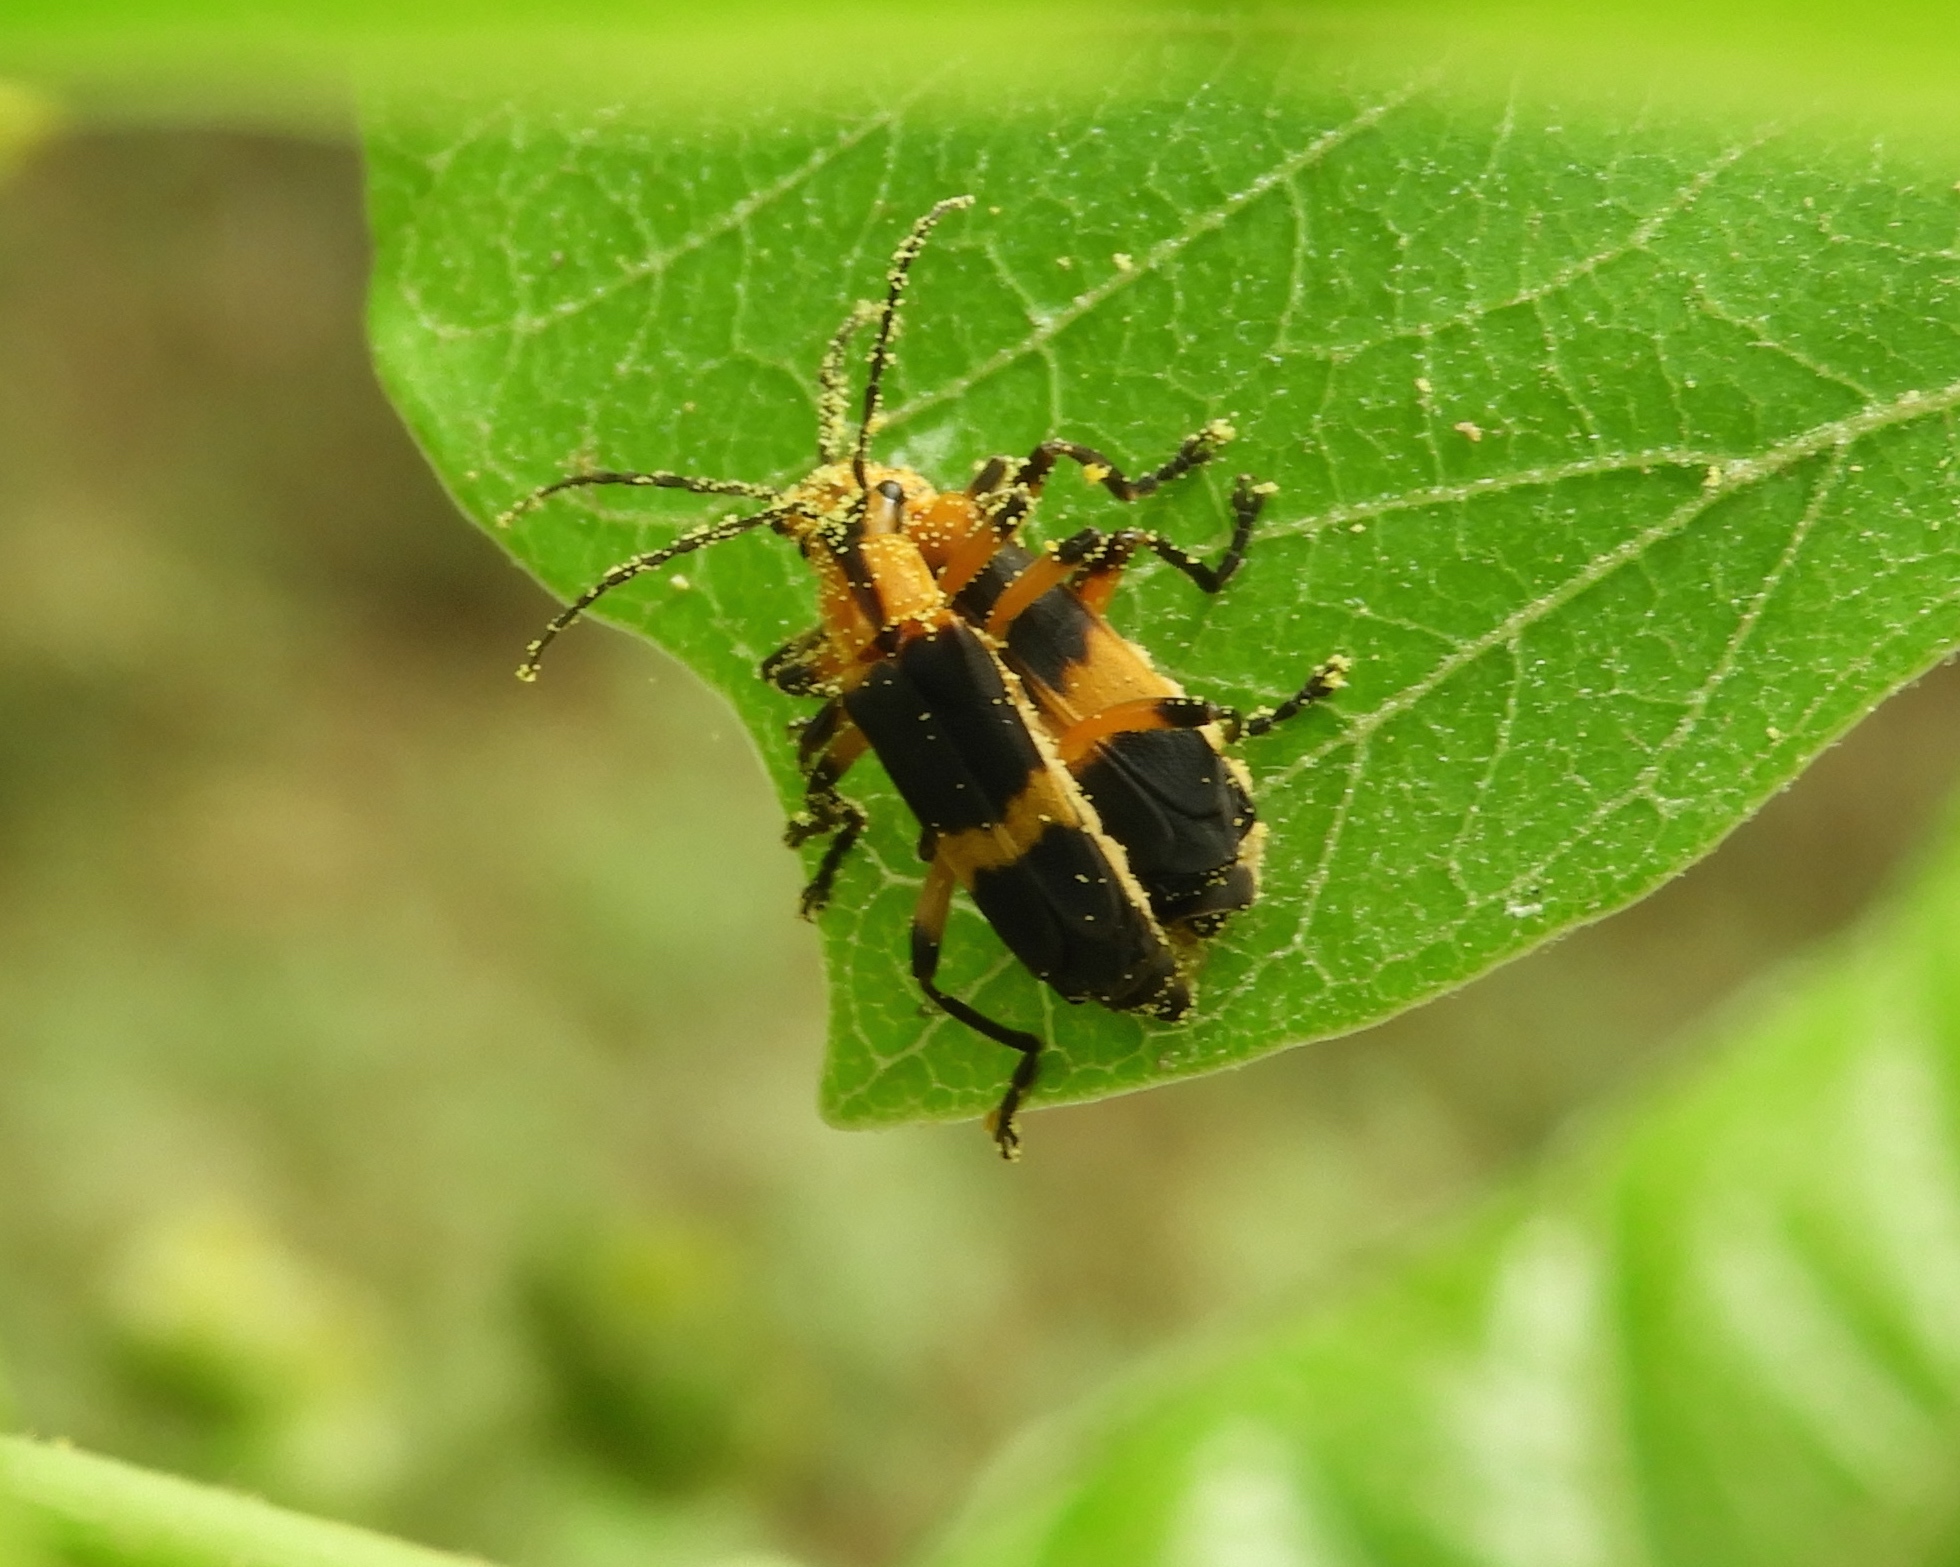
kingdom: Animalia
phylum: Arthropoda
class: Insecta
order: Coleoptera
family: Cantharidae
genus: Daiphron
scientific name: Daiphron proteum
